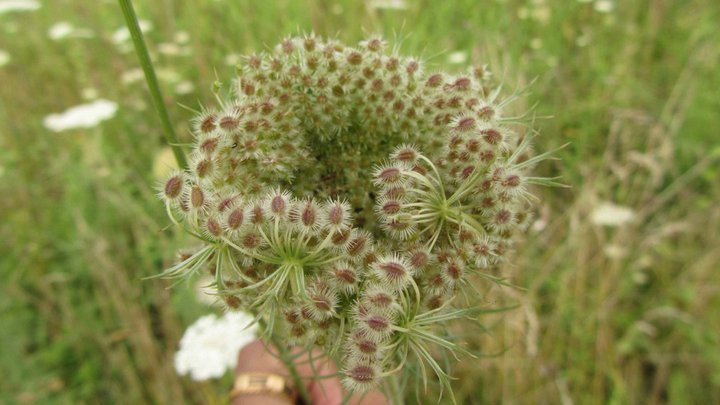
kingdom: Plantae
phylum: Tracheophyta
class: Magnoliopsida
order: Apiales
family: Apiaceae
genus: Daucus
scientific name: Daucus carota
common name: Wild carrot
